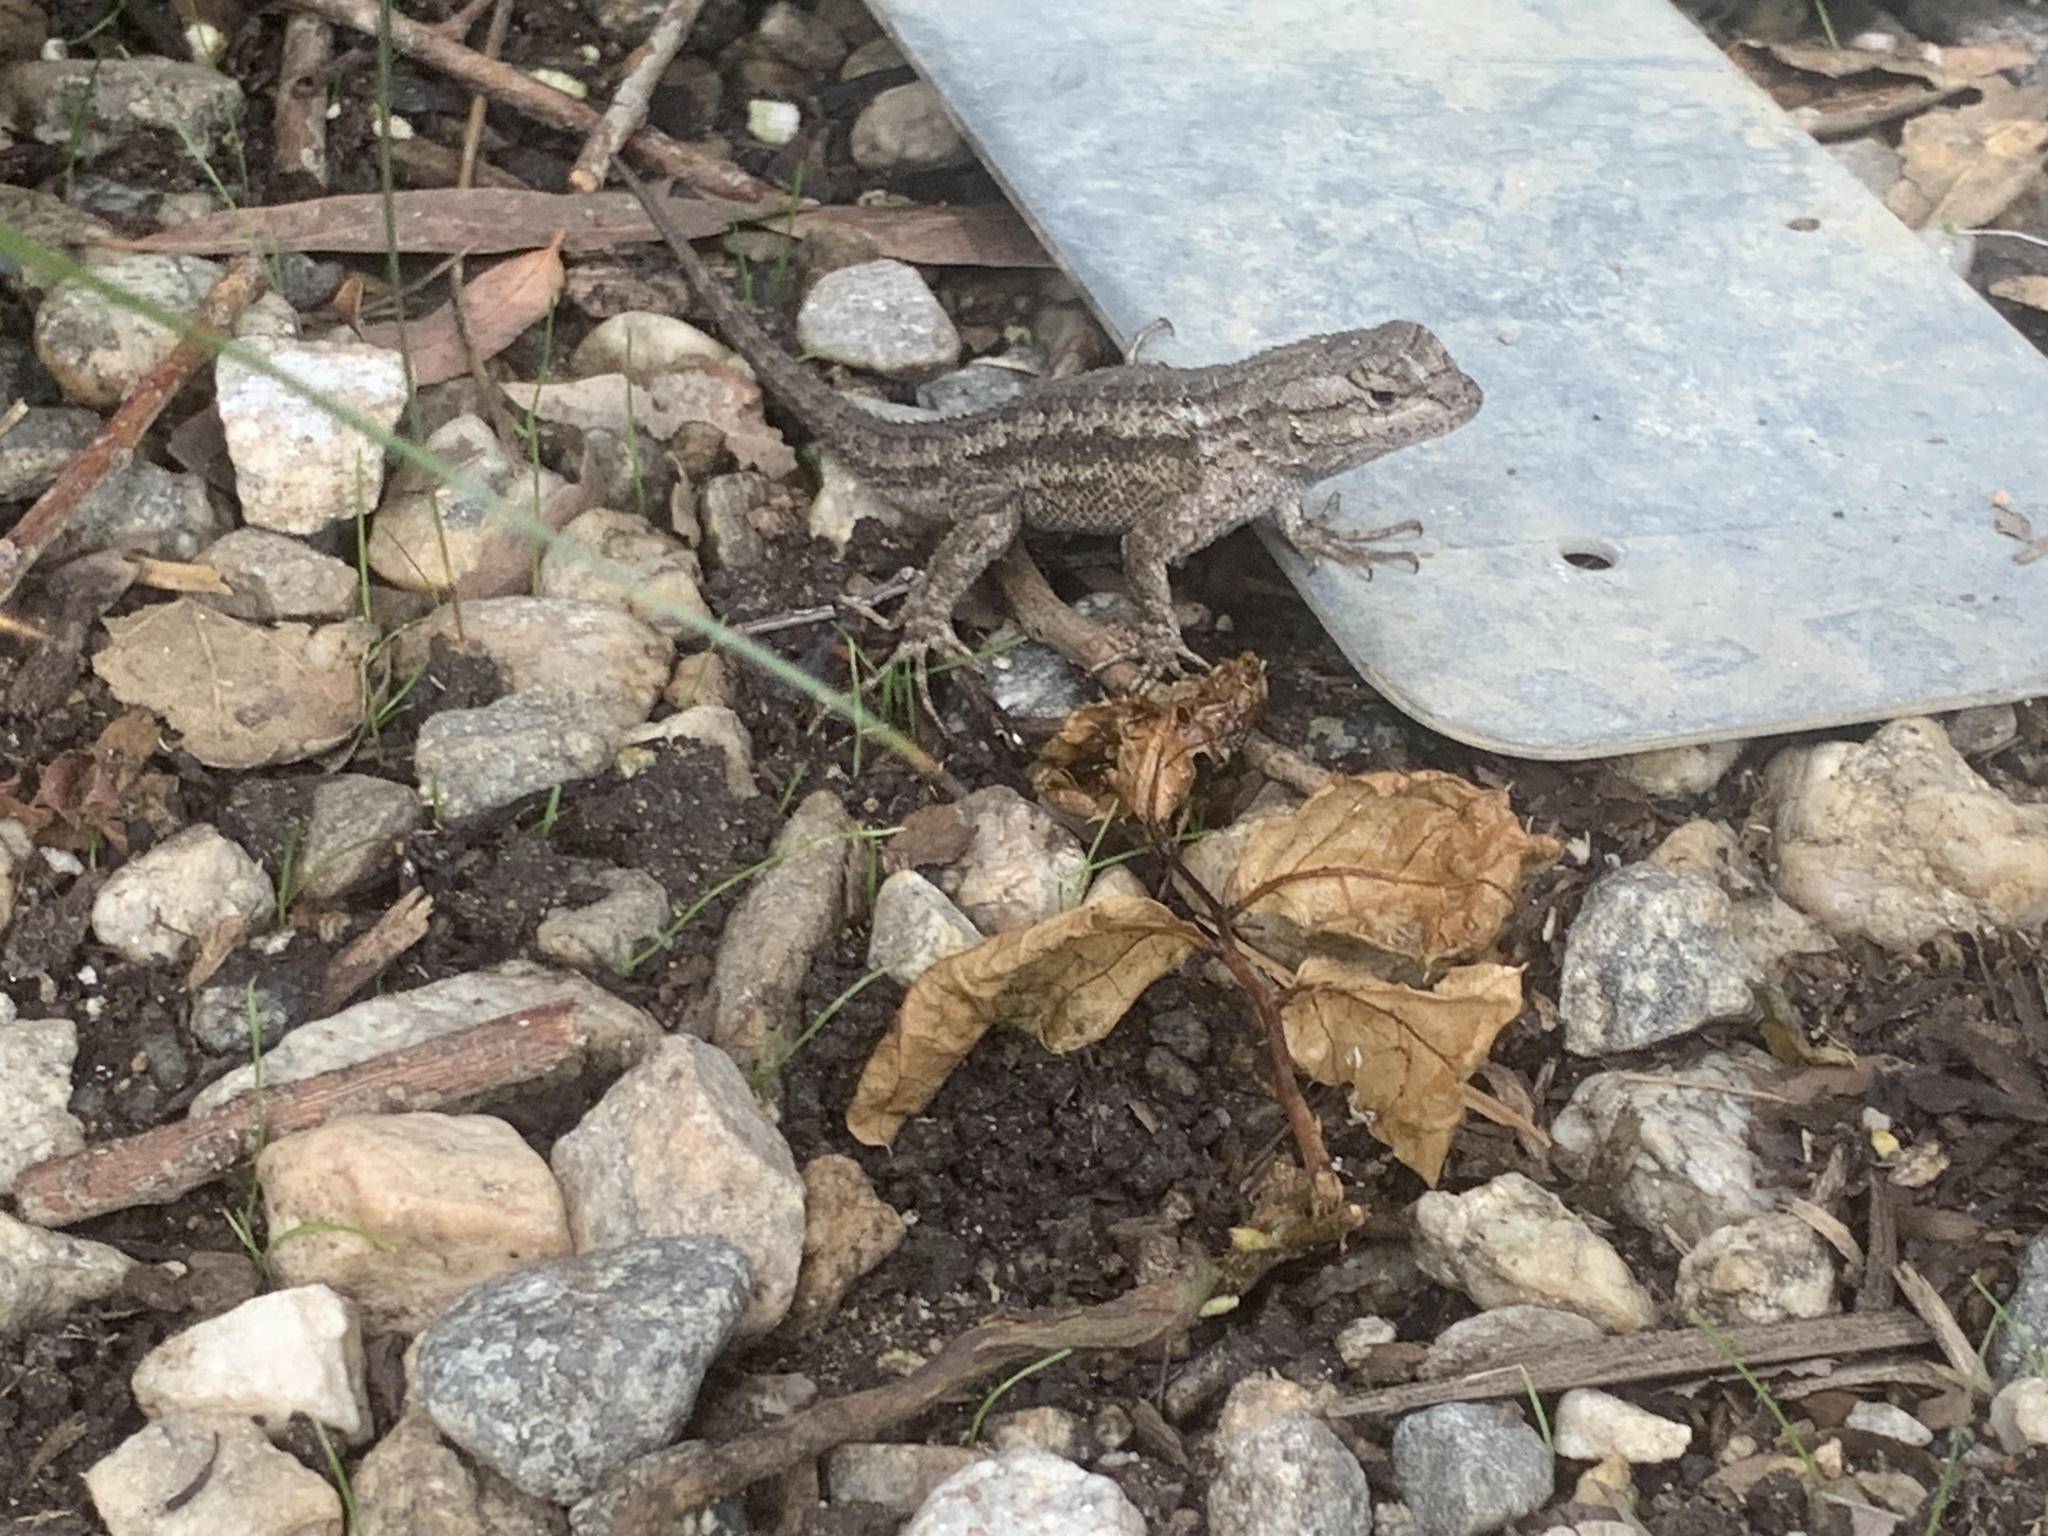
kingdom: Animalia
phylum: Chordata
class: Squamata
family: Phrynosomatidae
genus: Sceloporus
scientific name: Sceloporus occidentalis
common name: Western fence lizard
